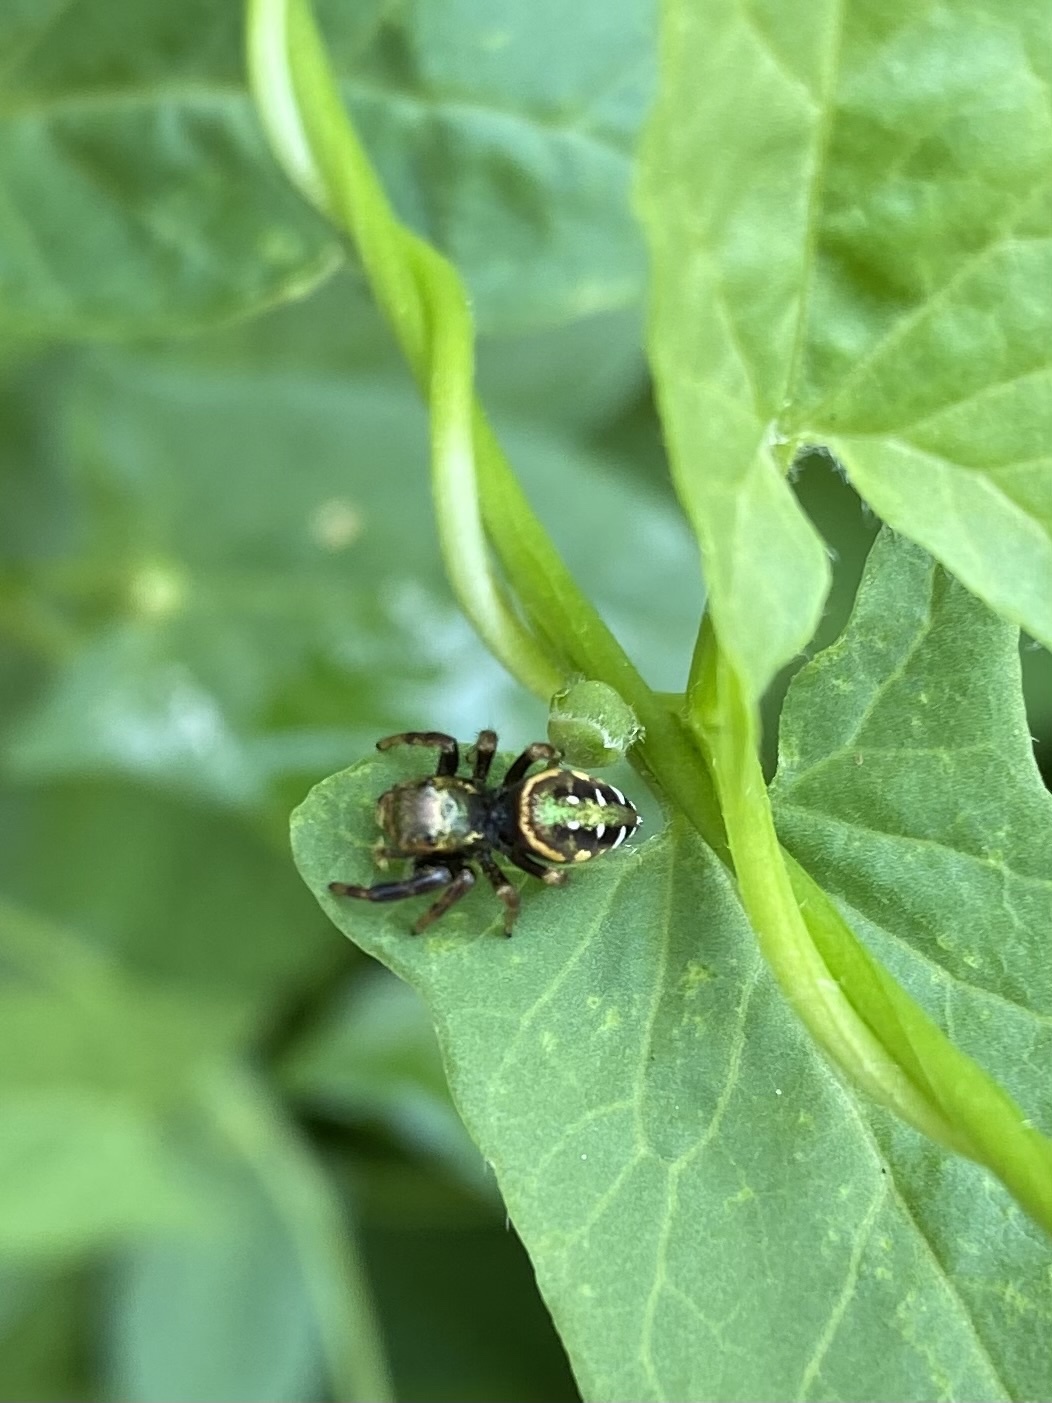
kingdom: Animalia
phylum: Arthropoda
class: Arachnida
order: Araneae
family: Salticidae
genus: Paraphidippus
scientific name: Paraphidippus aurantius
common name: Jumping spiders
